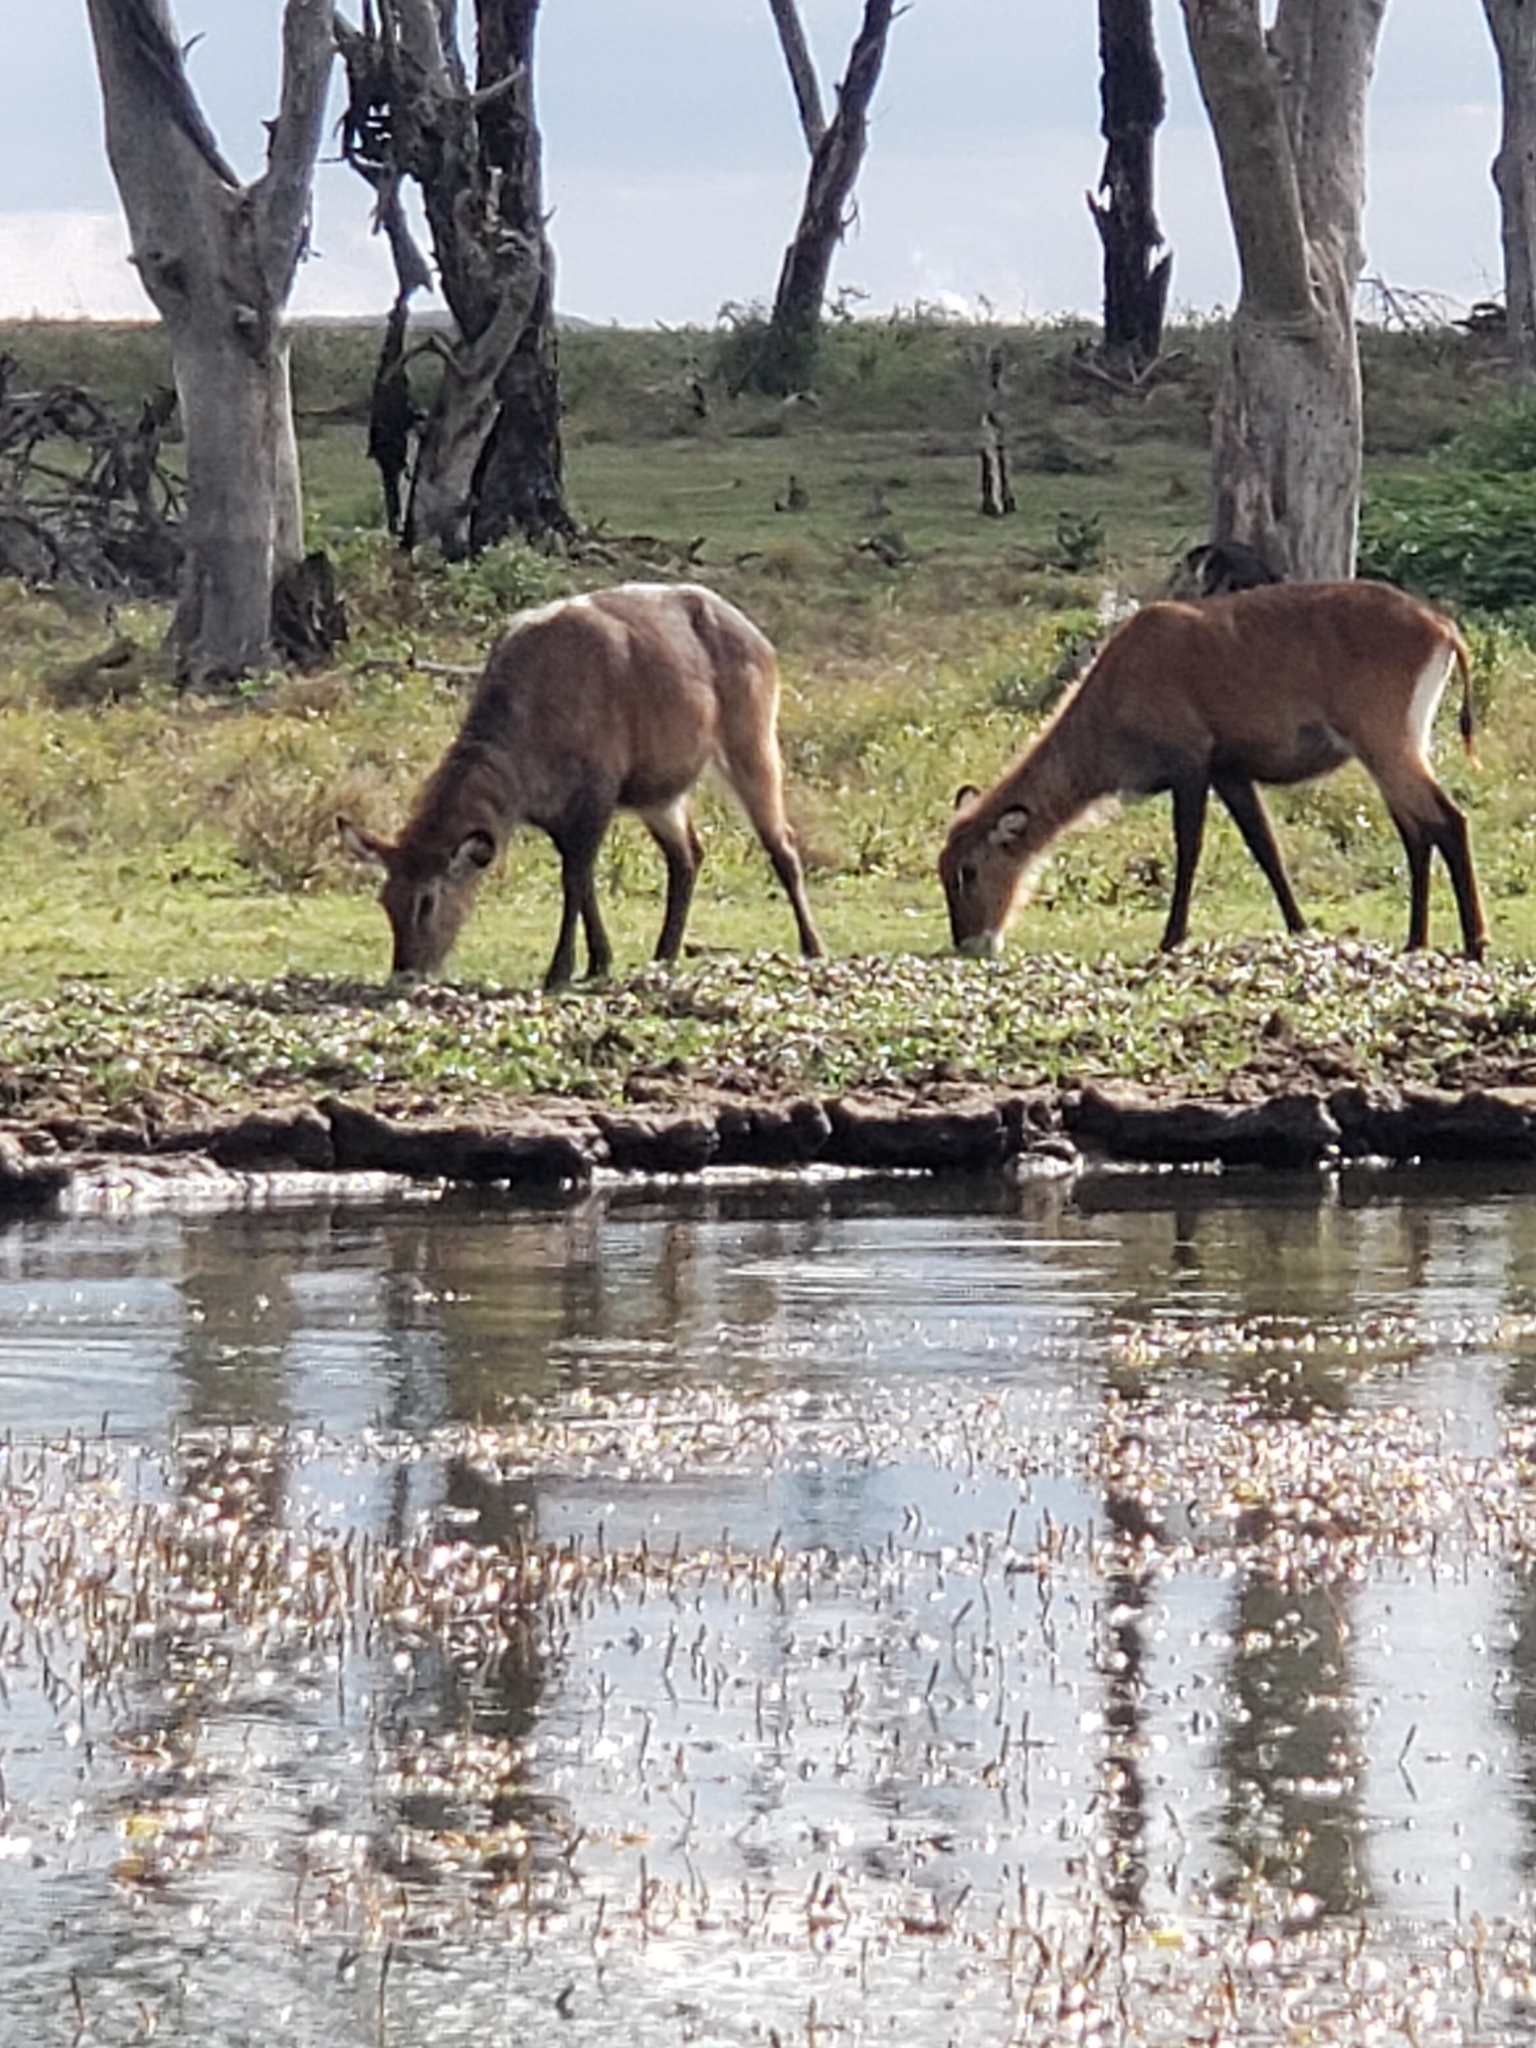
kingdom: Animalia
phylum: Chordata
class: Mammalia
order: Artiodactyla
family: Bovidae
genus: Kobus
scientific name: Kobus ellipsiprymnus
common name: Waterbuck
